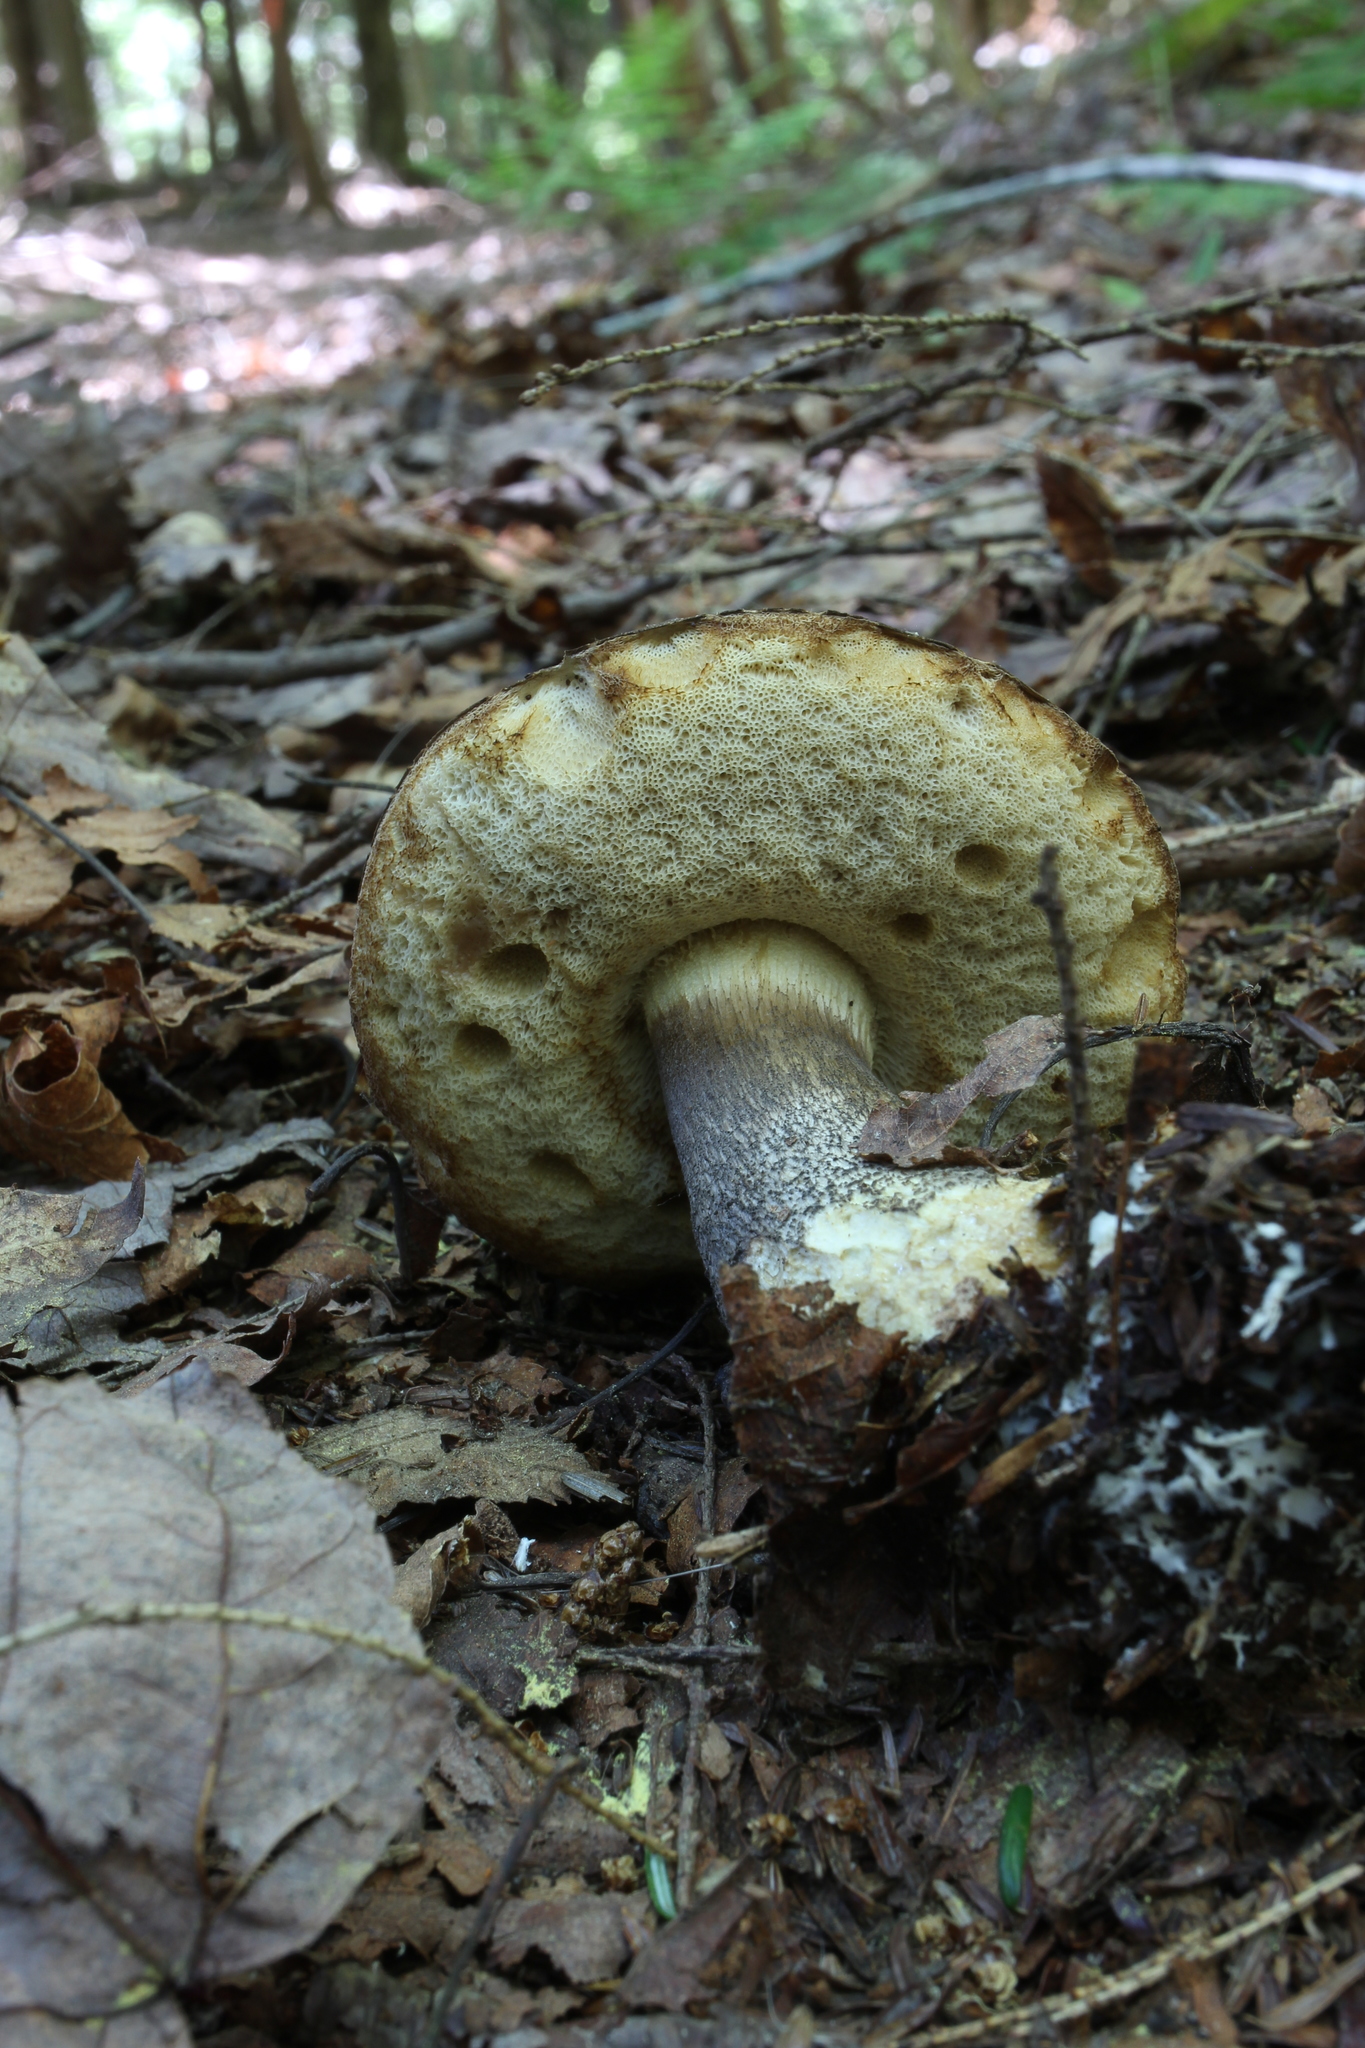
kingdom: Fungi
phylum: Basidiomycota
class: Agaricomycetes
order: Boletales
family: Boletaceae
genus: Leccinum
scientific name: Leccinum variicolor
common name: Mottled bolete
